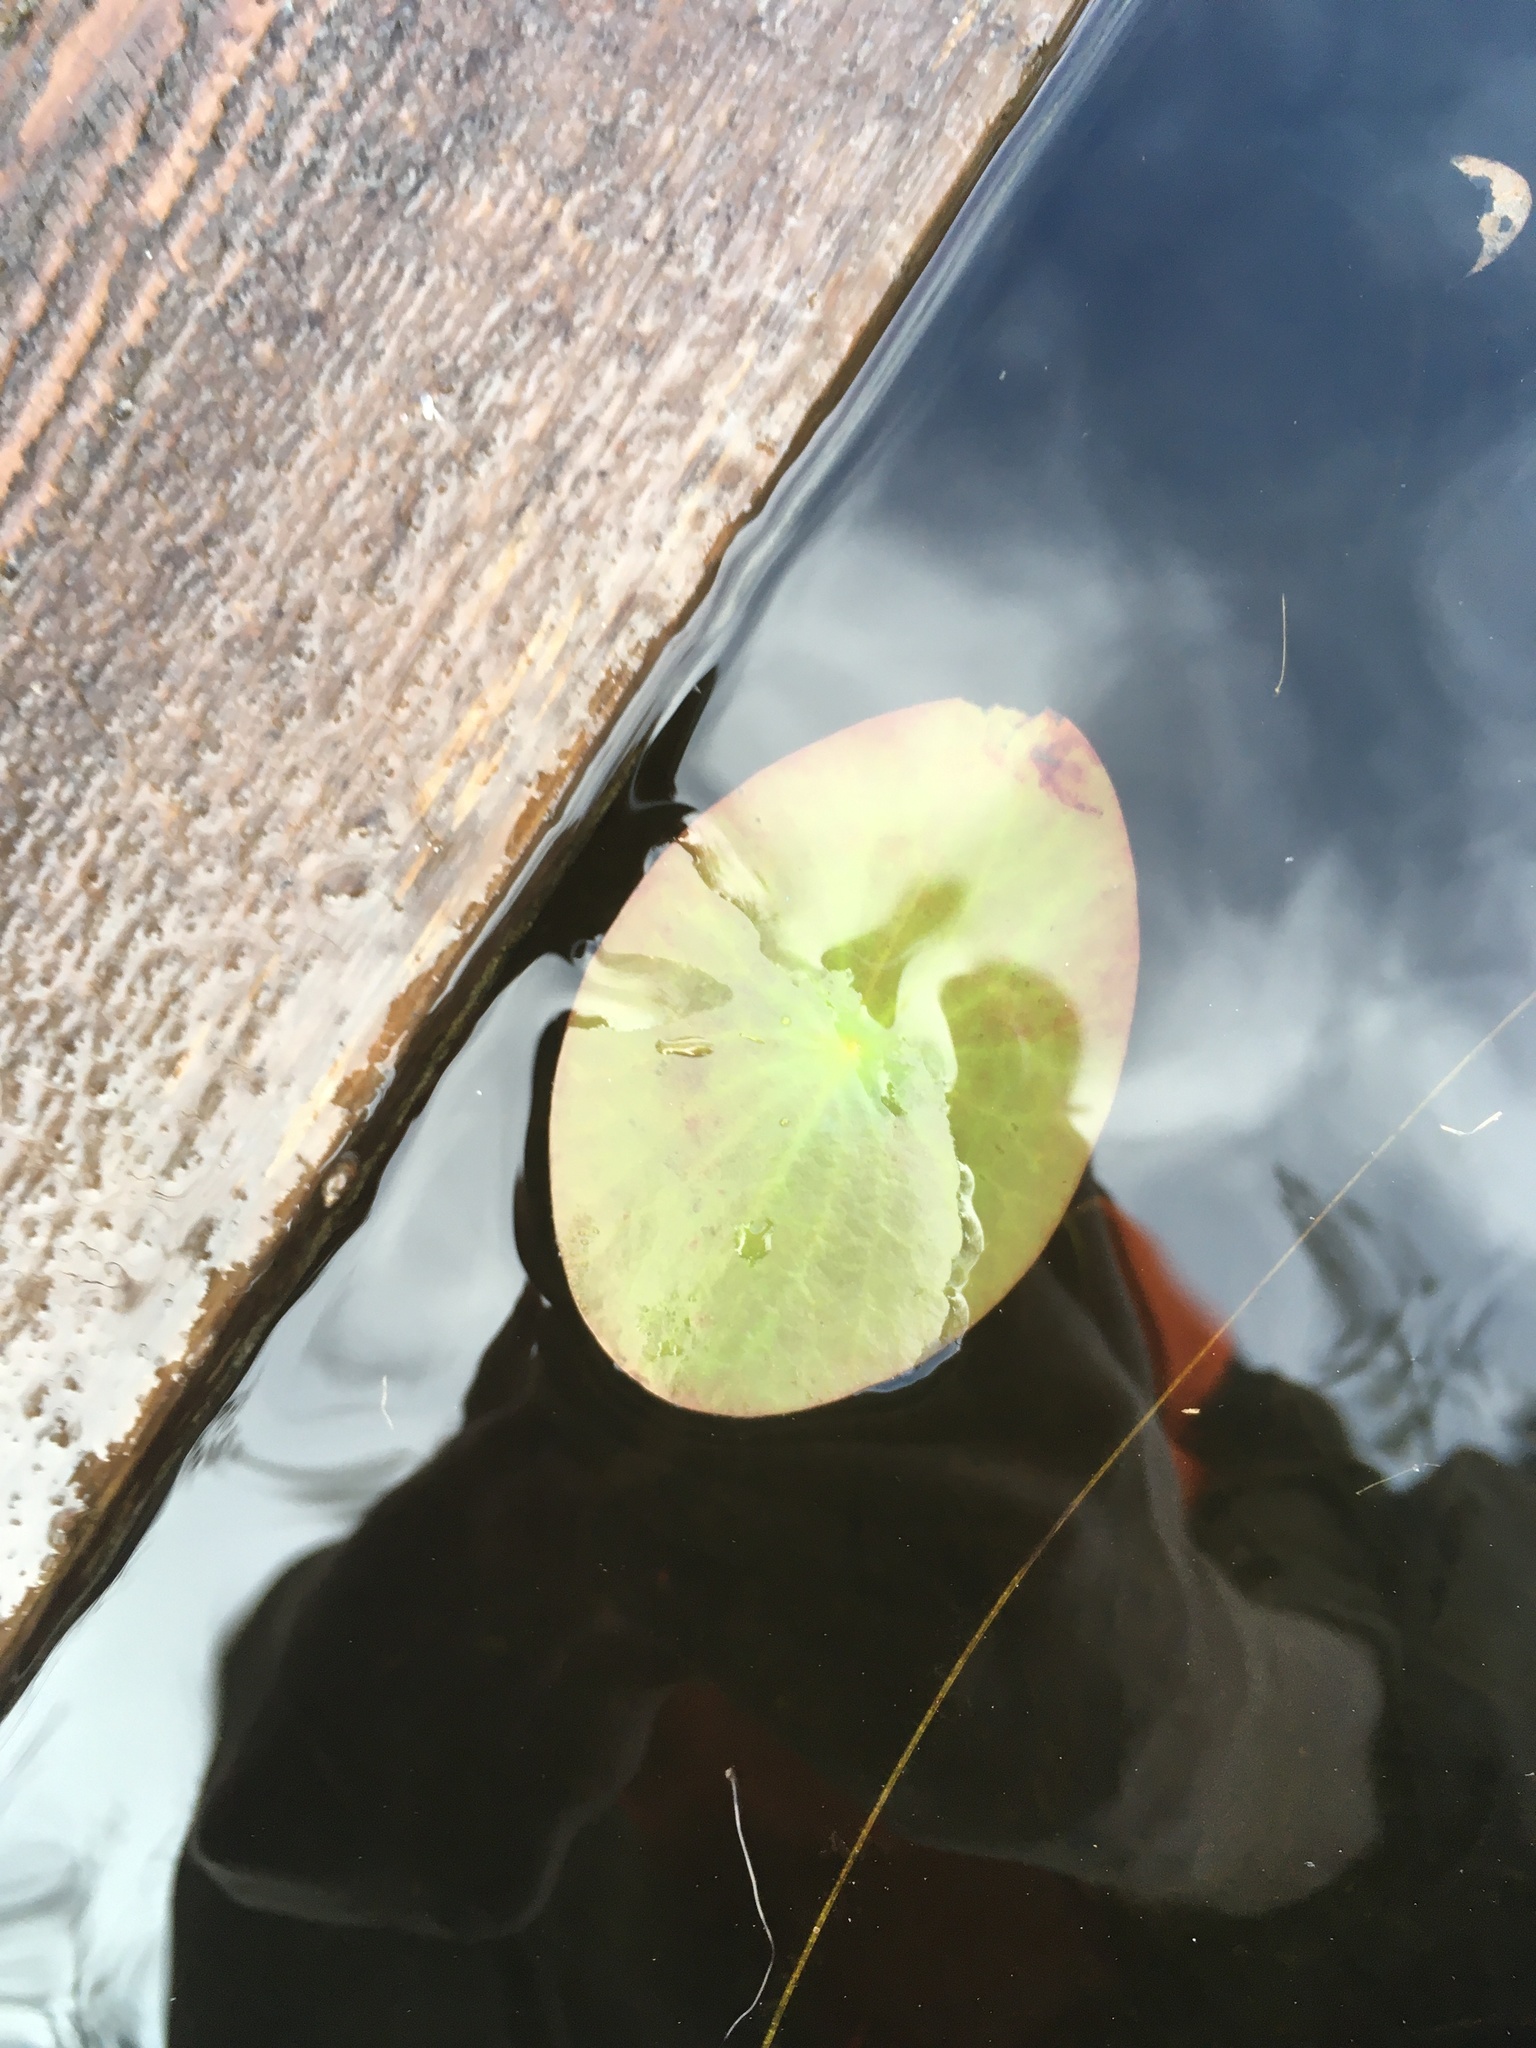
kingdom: Plantae
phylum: Tracheophyta
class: Magnoliopsida
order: Nymphaeales
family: Cabombaceae
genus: Brasenia
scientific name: Brasenia schreberi
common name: Water-shield
